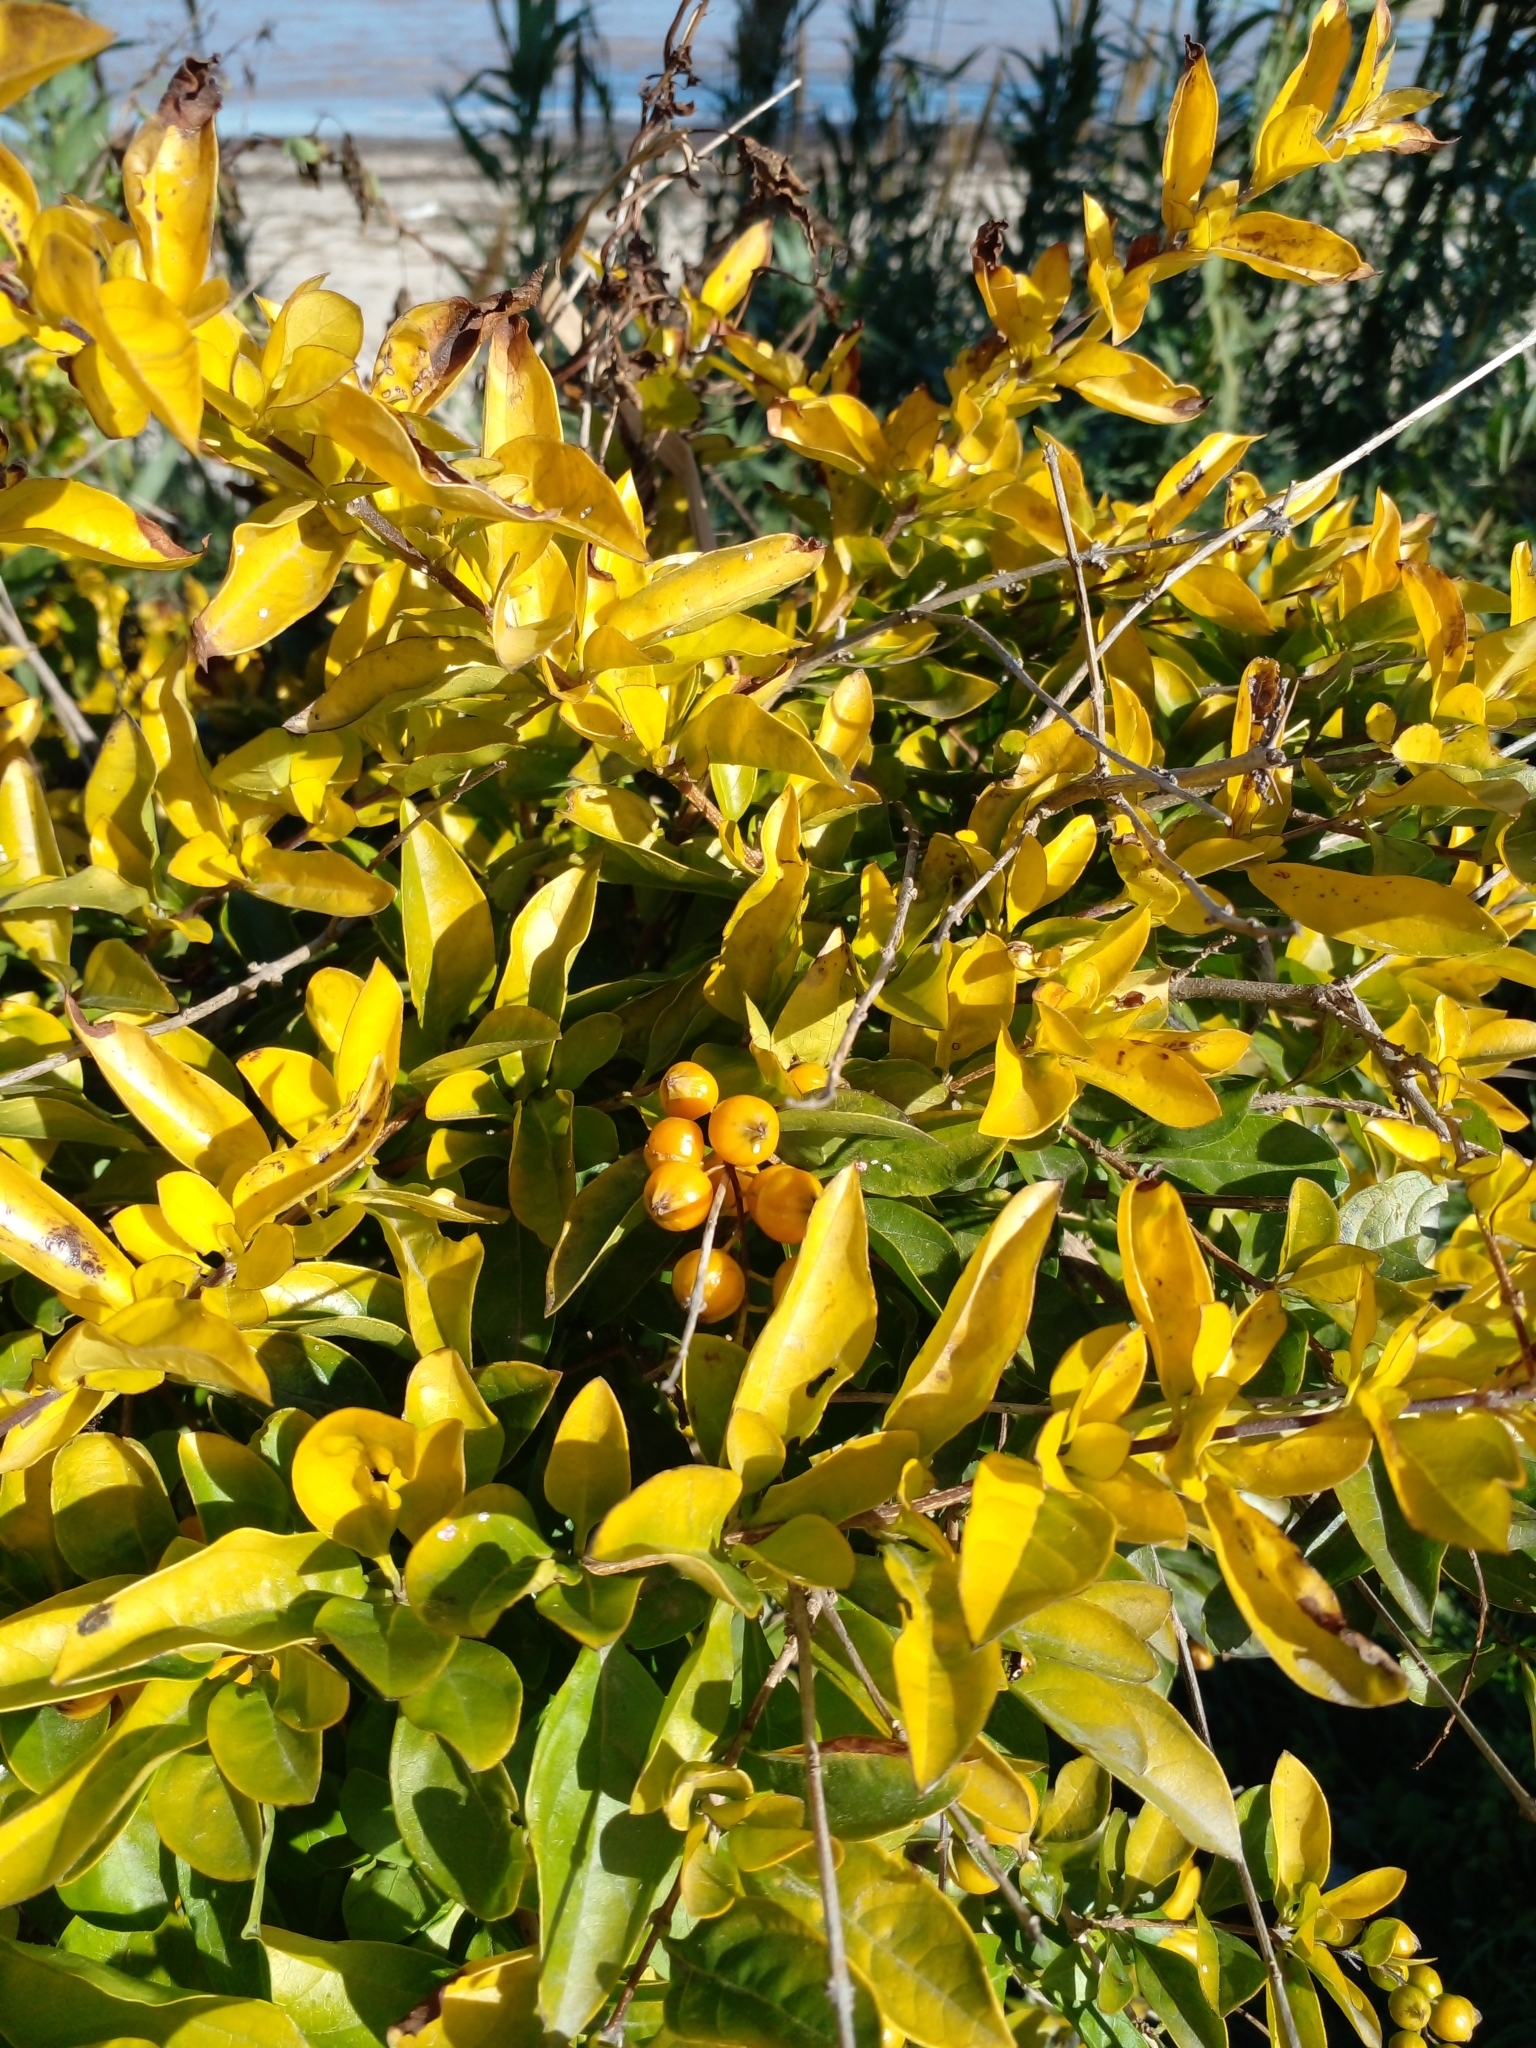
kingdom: Plantae
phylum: Tracheophyta
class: Magnoliopsida
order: Lamiales
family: Verbenaceae
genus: Duranta
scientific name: Duranta erecta
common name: Golden dewdrops
